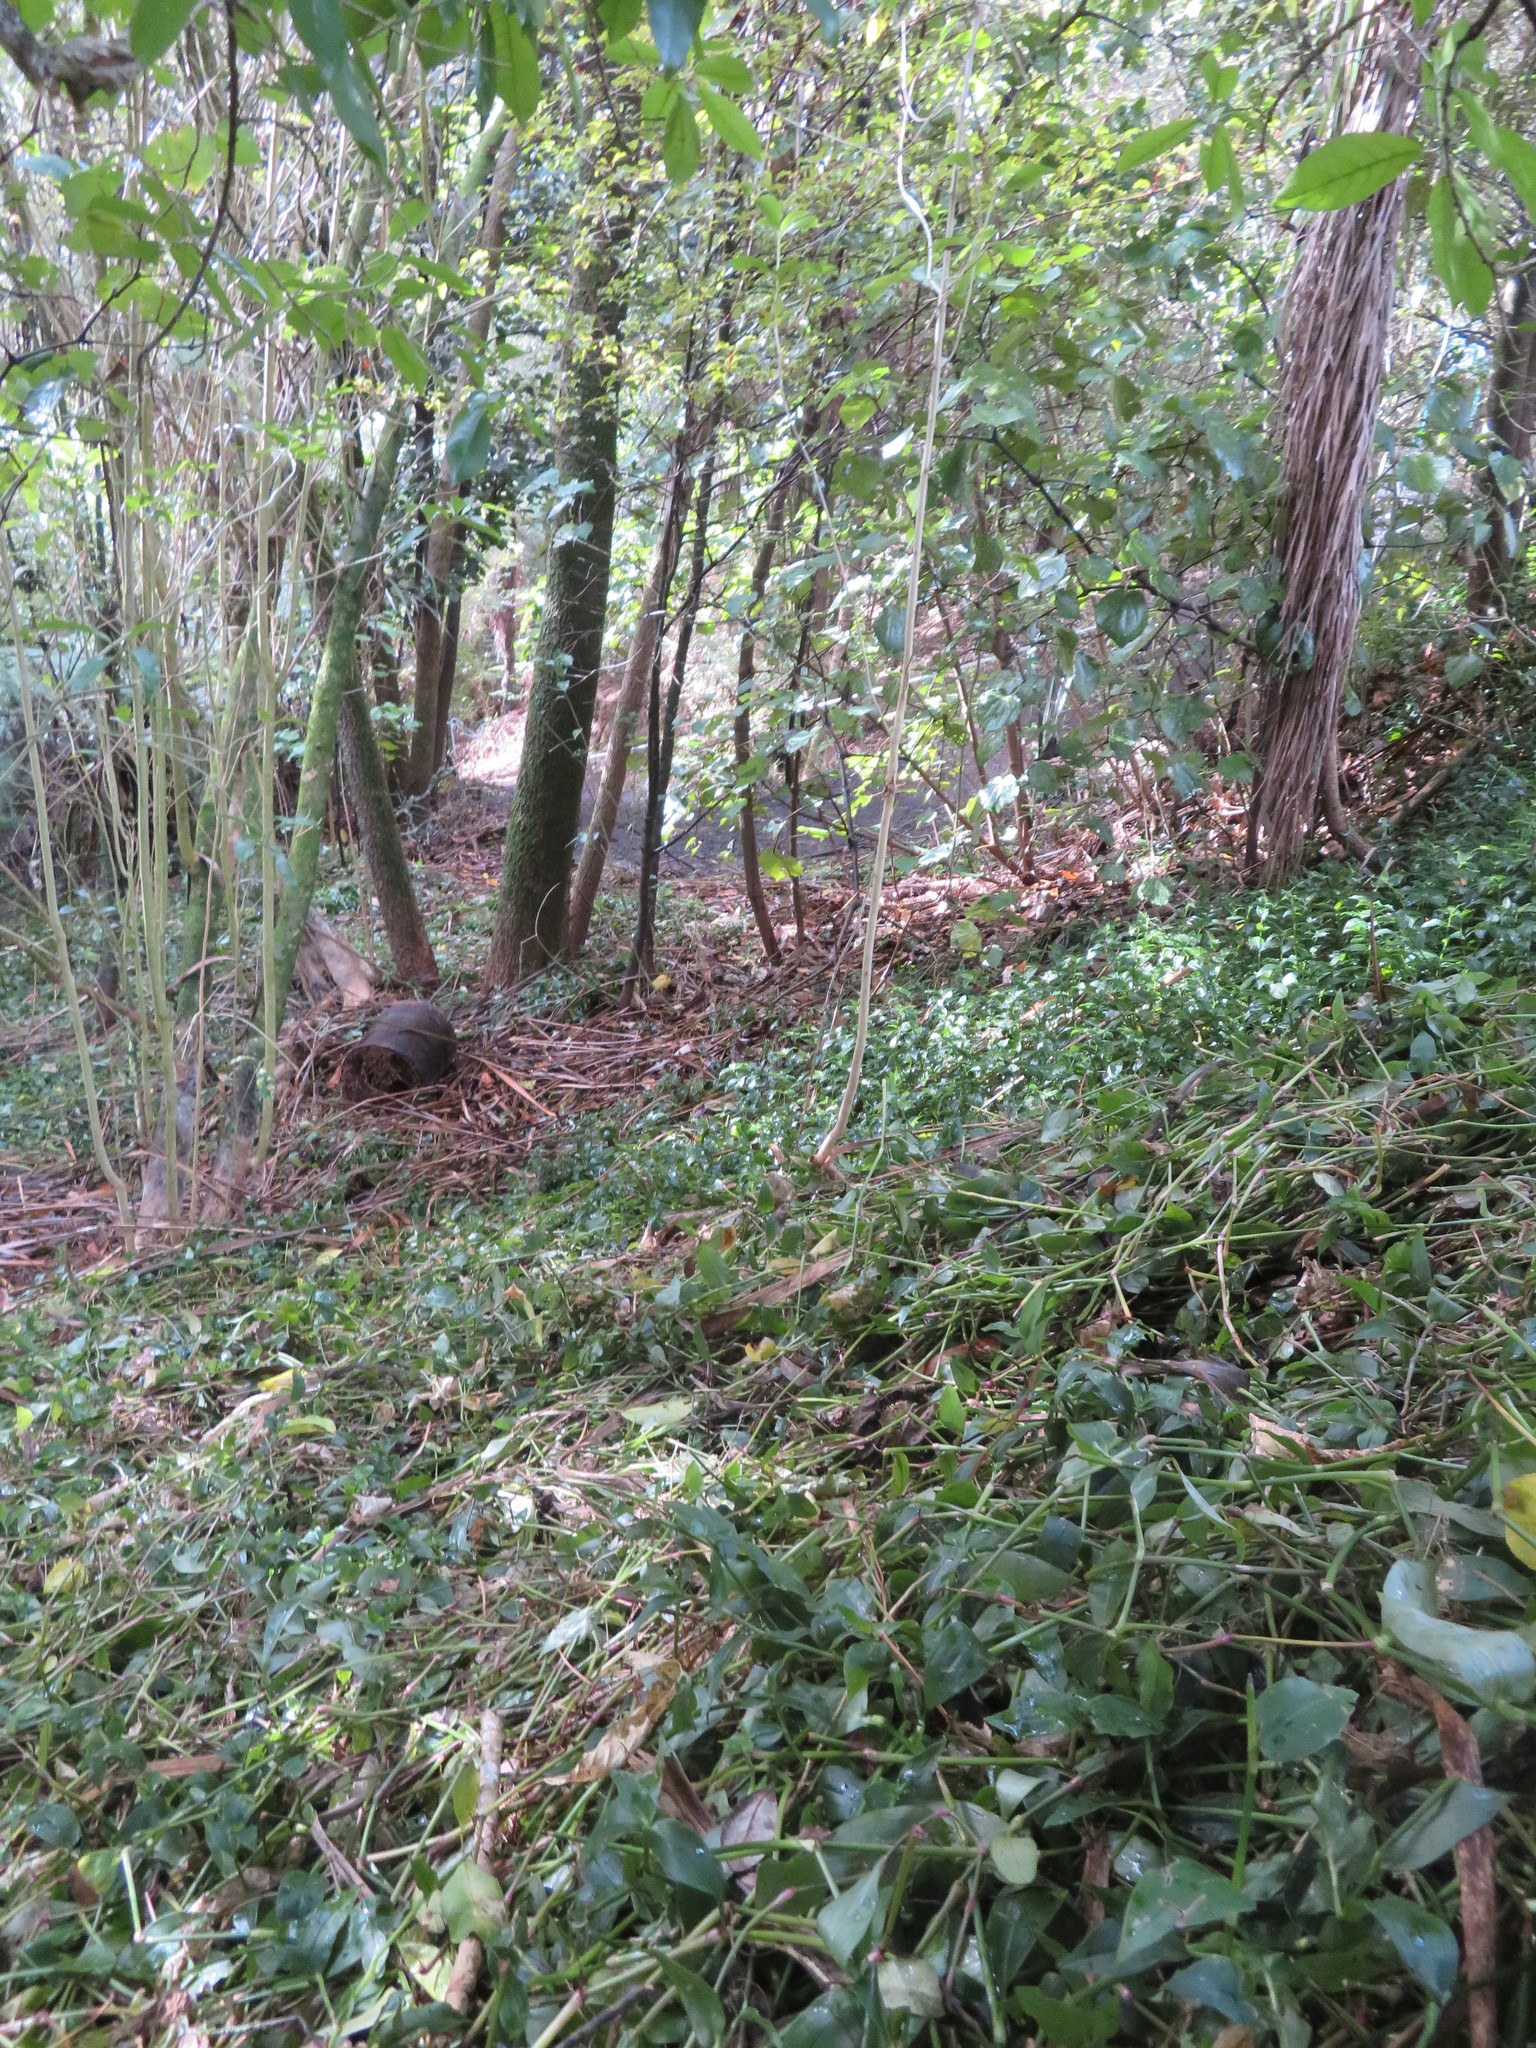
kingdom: Plantae
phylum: Tracheophyta
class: Liliopsida
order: Asparagales
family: Asparagaceae
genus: Cordyline
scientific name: Cordyline australis
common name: Cabbage-palm
